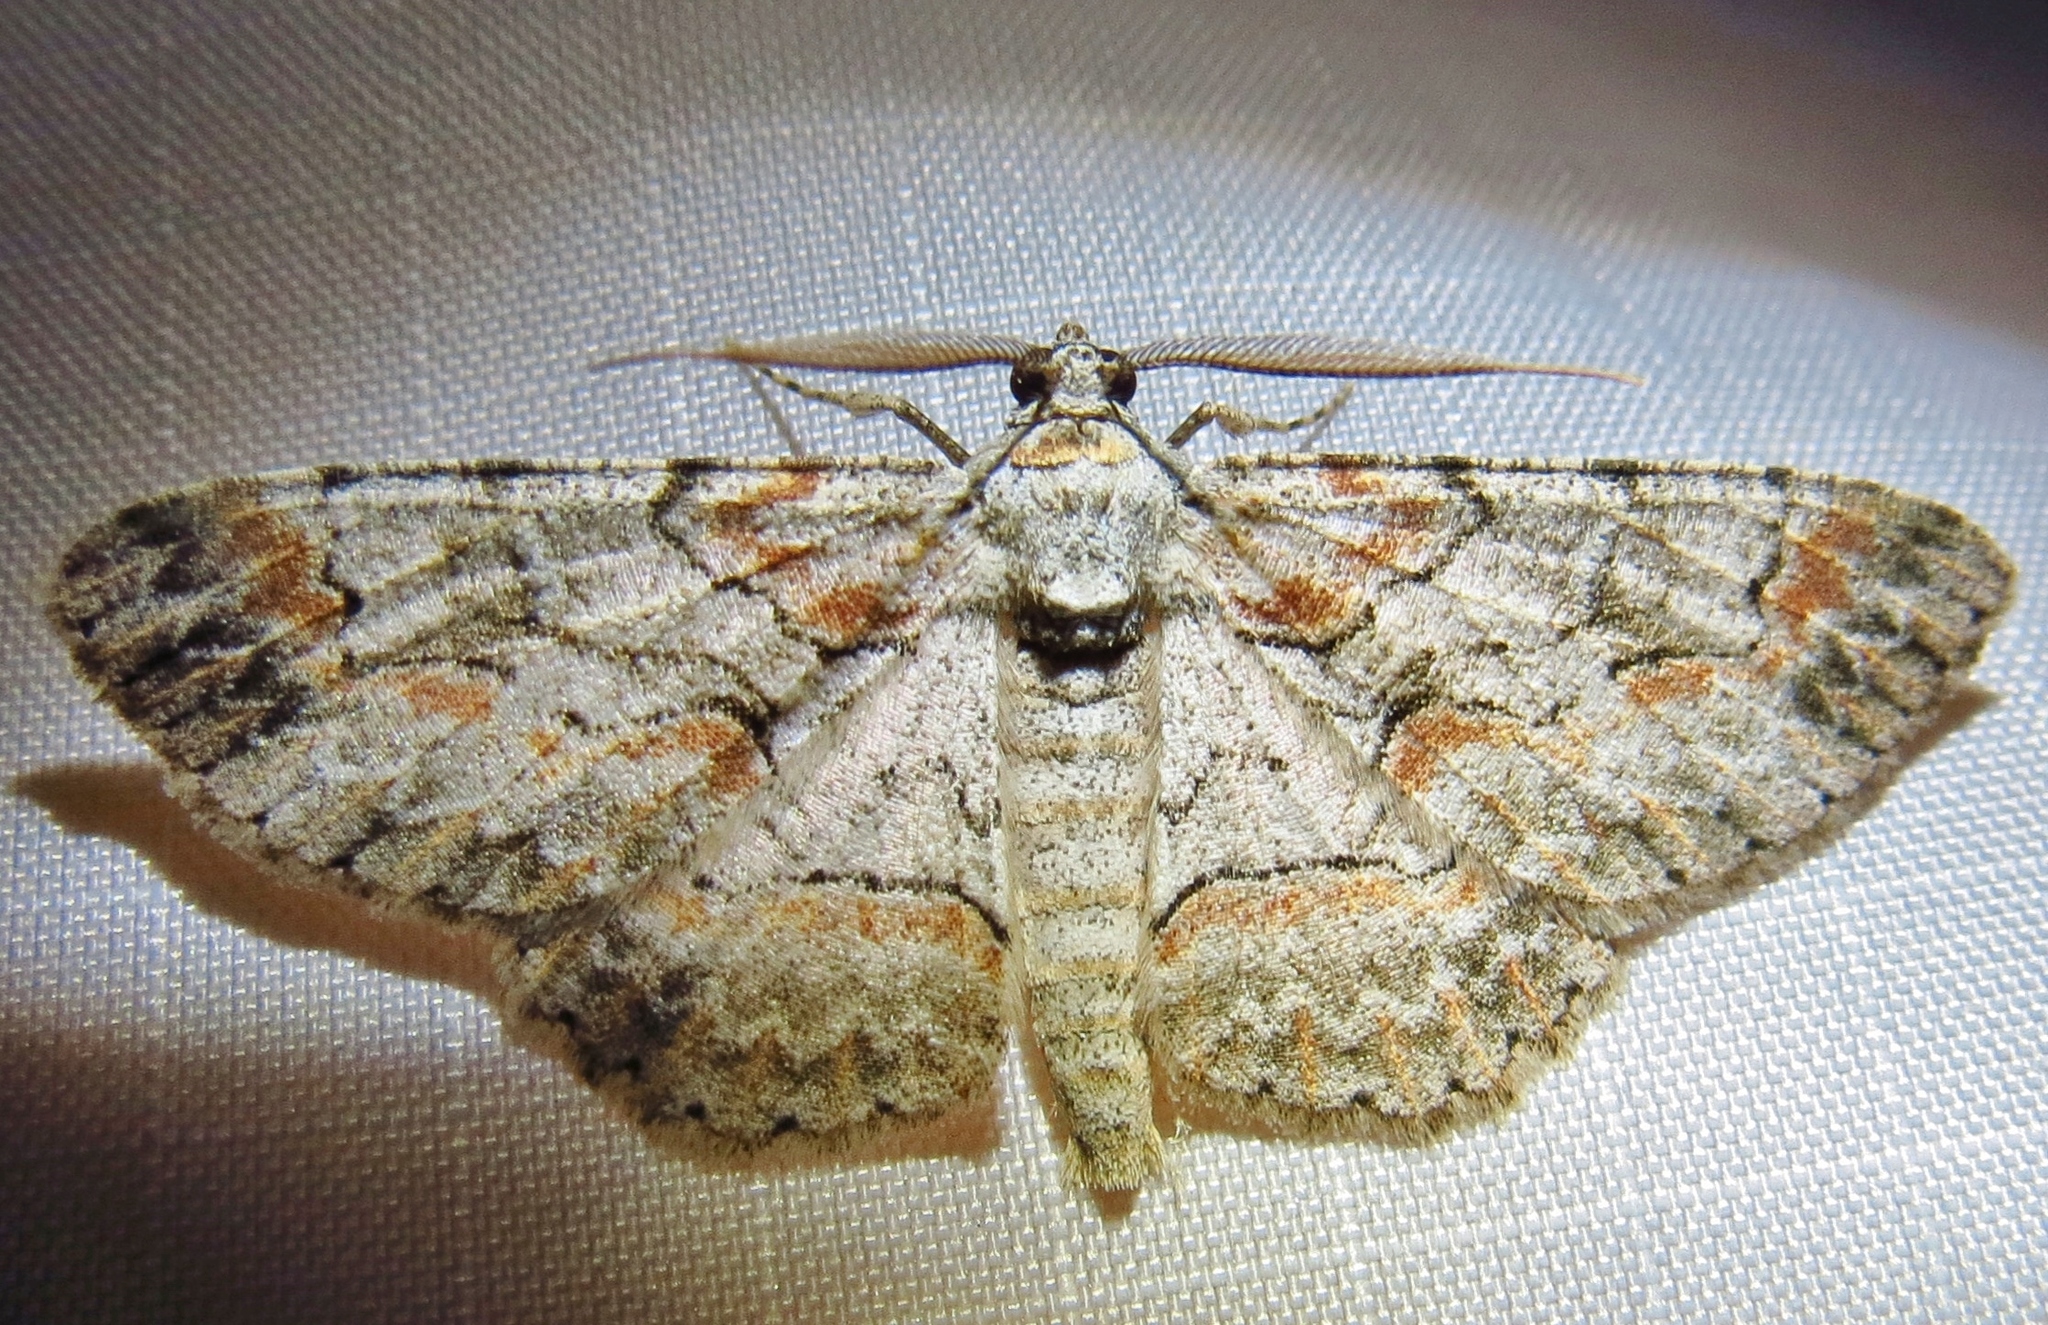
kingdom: Animalia
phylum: Arthropoda
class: Insecta
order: Lepidoptera
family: Geometridae
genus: Iridopsis
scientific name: Iridopsis defectaria
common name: Brown-shaded gray
